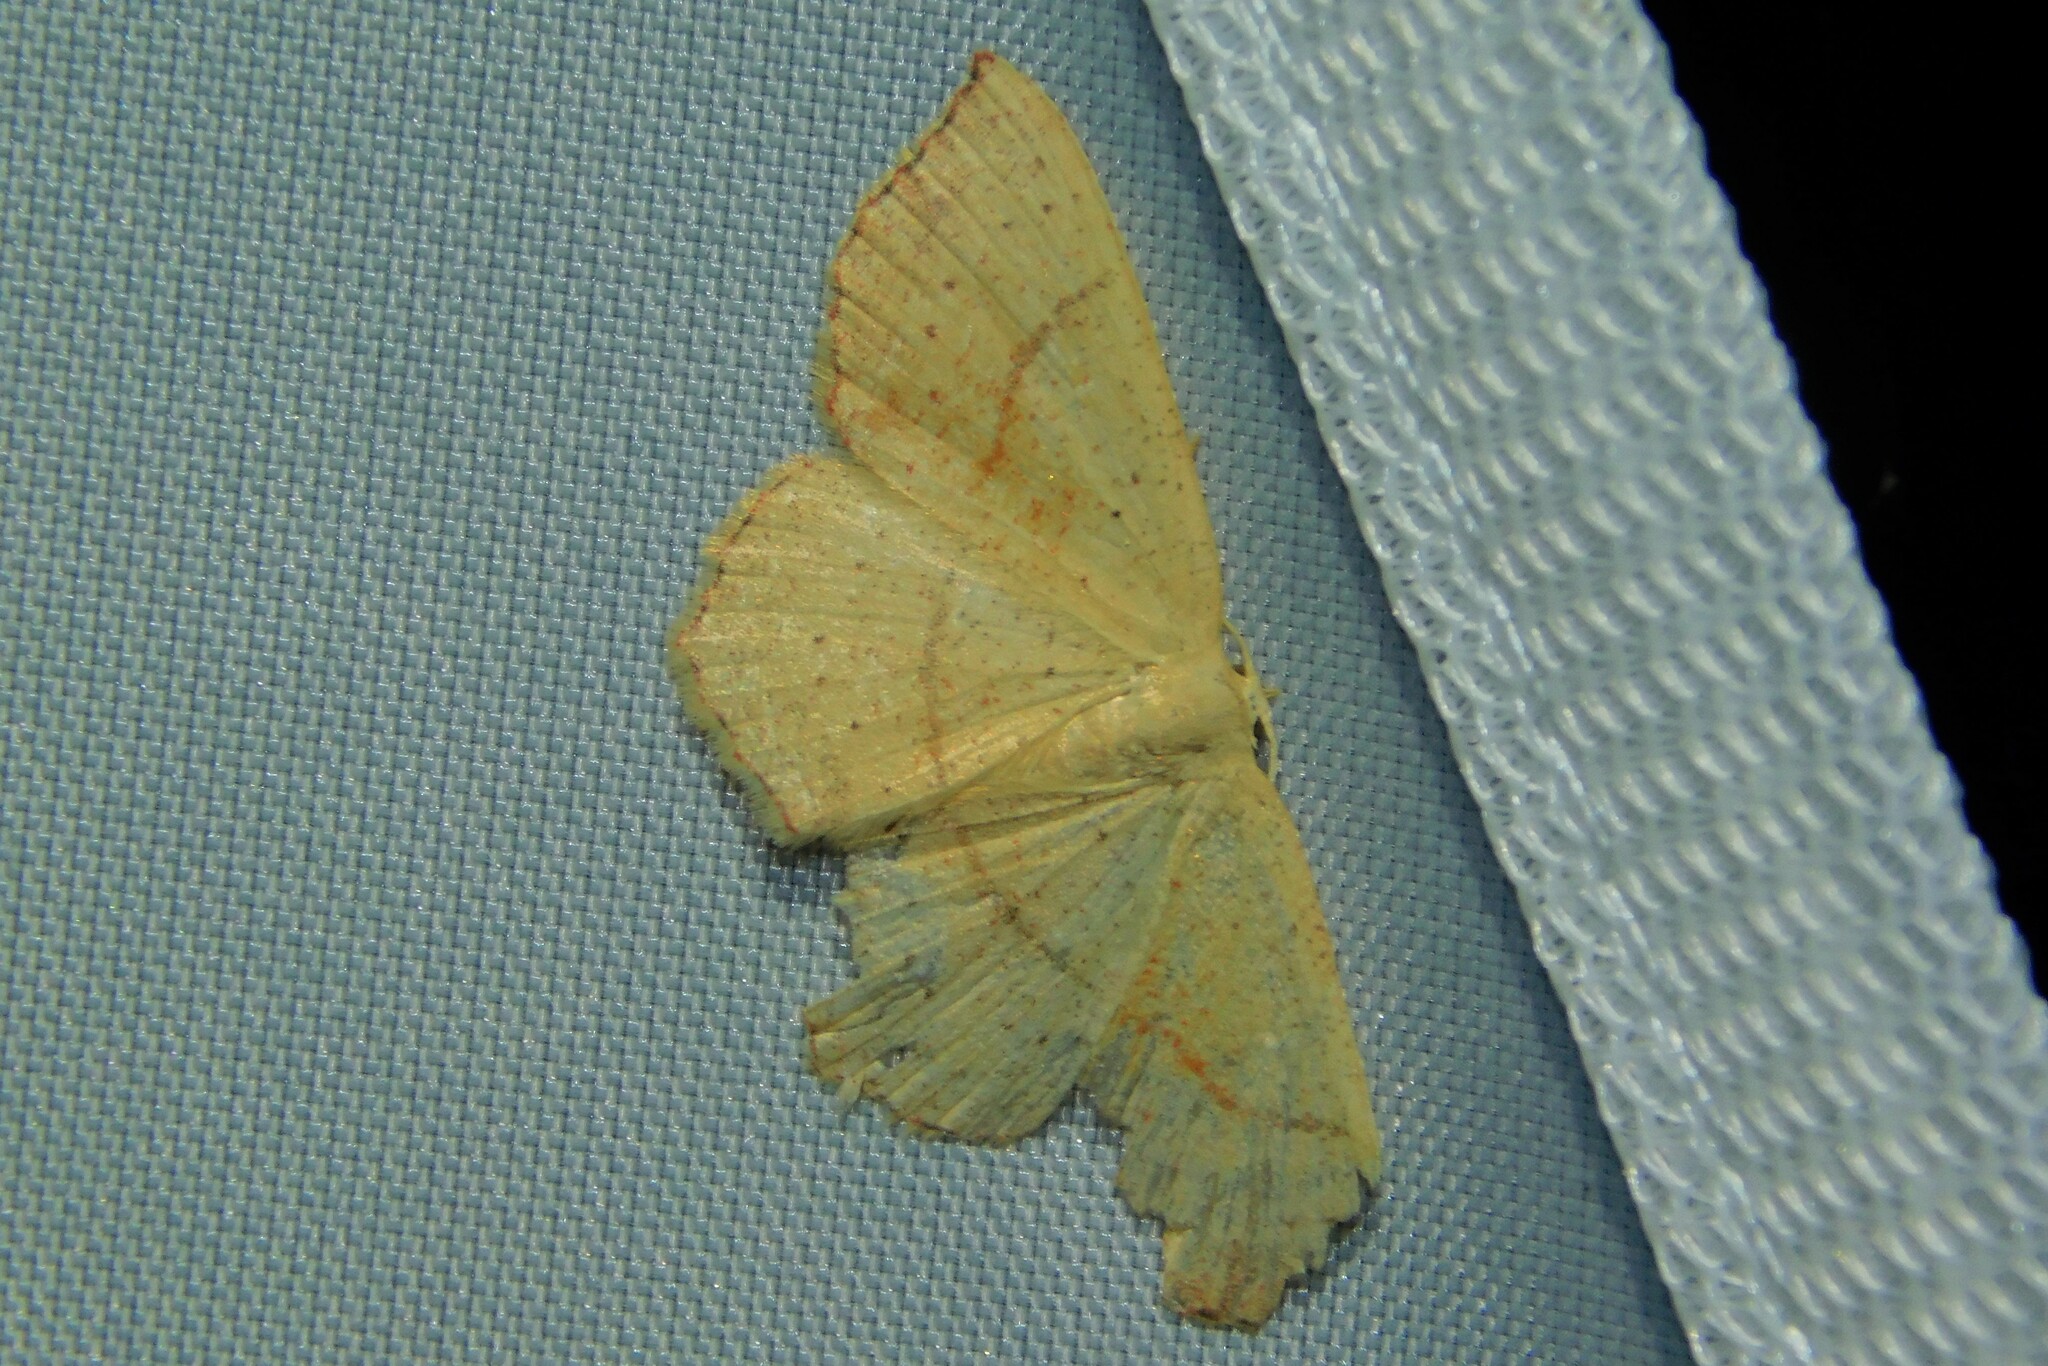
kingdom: Animalia
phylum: Arthropoda
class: Insecta
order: Lepidoptera
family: Geometridae
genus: Cyclophora
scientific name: Cyclophora punctaria
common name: Maiden's blush
